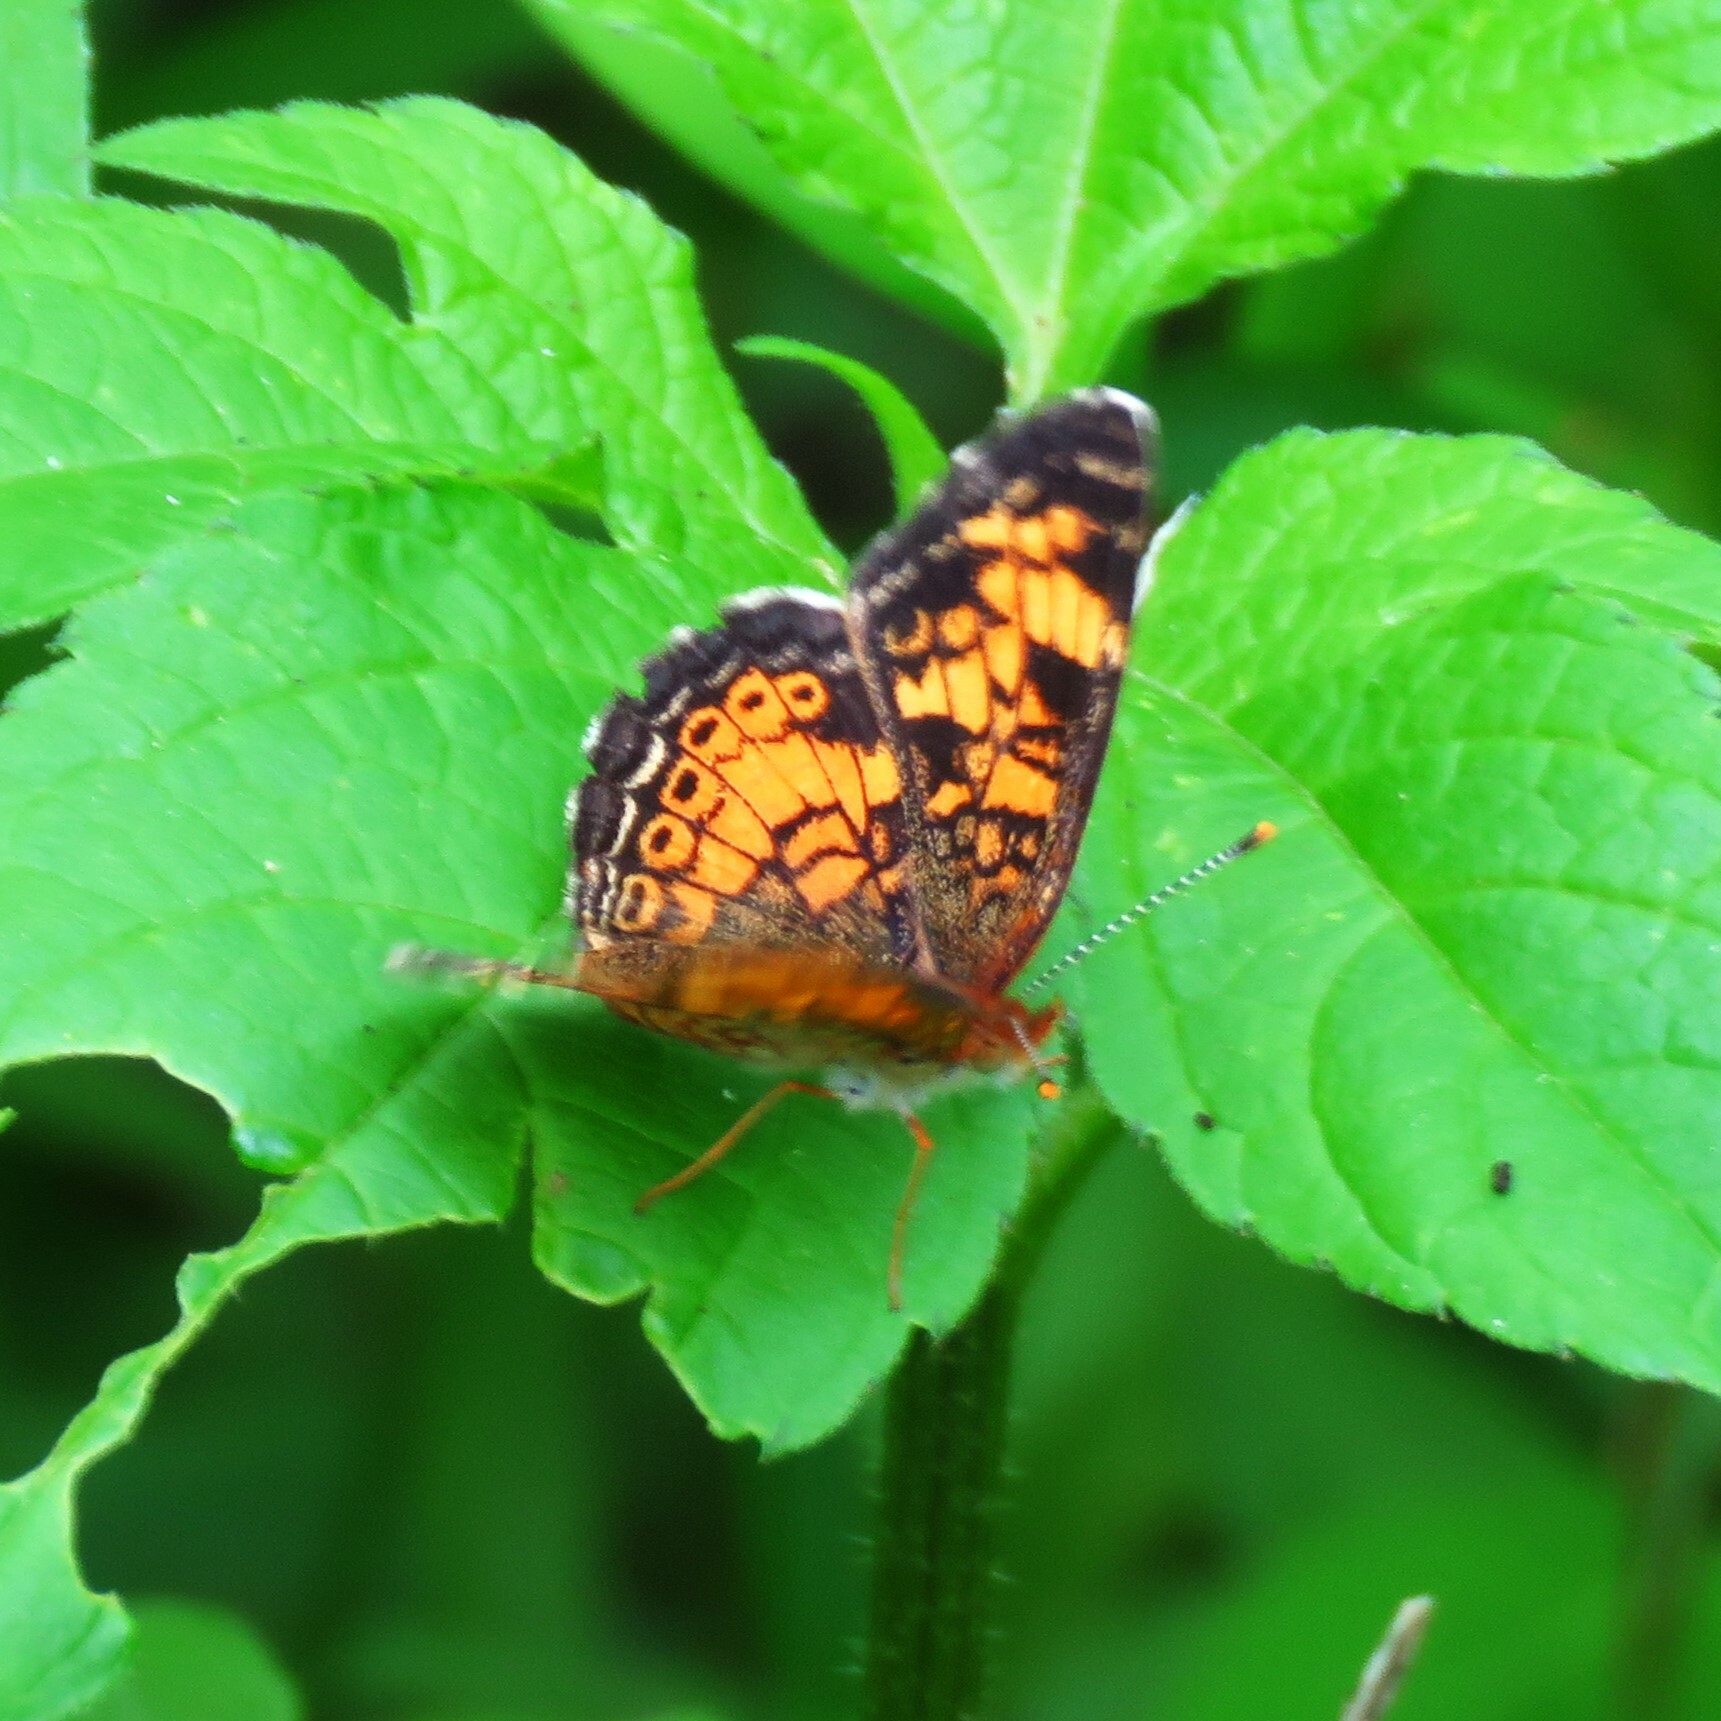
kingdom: Animalia
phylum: Arthropoda
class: Insecta
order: Lepidoptera
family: Nymphalidae
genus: Phyciodes
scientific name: Phyciodes tharos
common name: Pearl crescent
